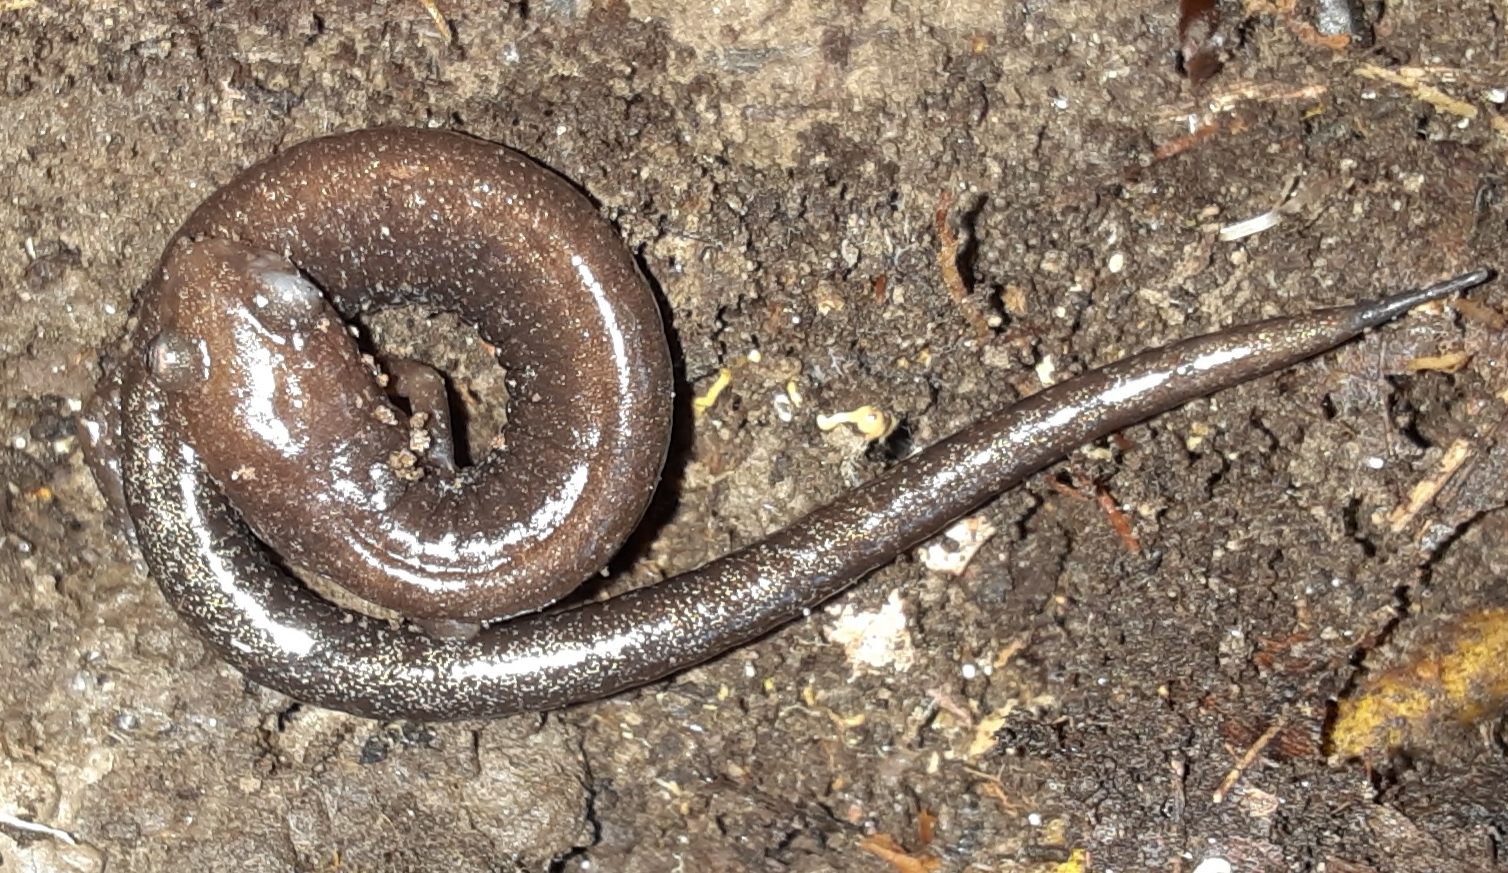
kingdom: Animalia
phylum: Chordata
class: Amphibia
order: Caudata
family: Plethodontidae
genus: Plethodon
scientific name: Plethodon cinereus
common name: Redback salamander
